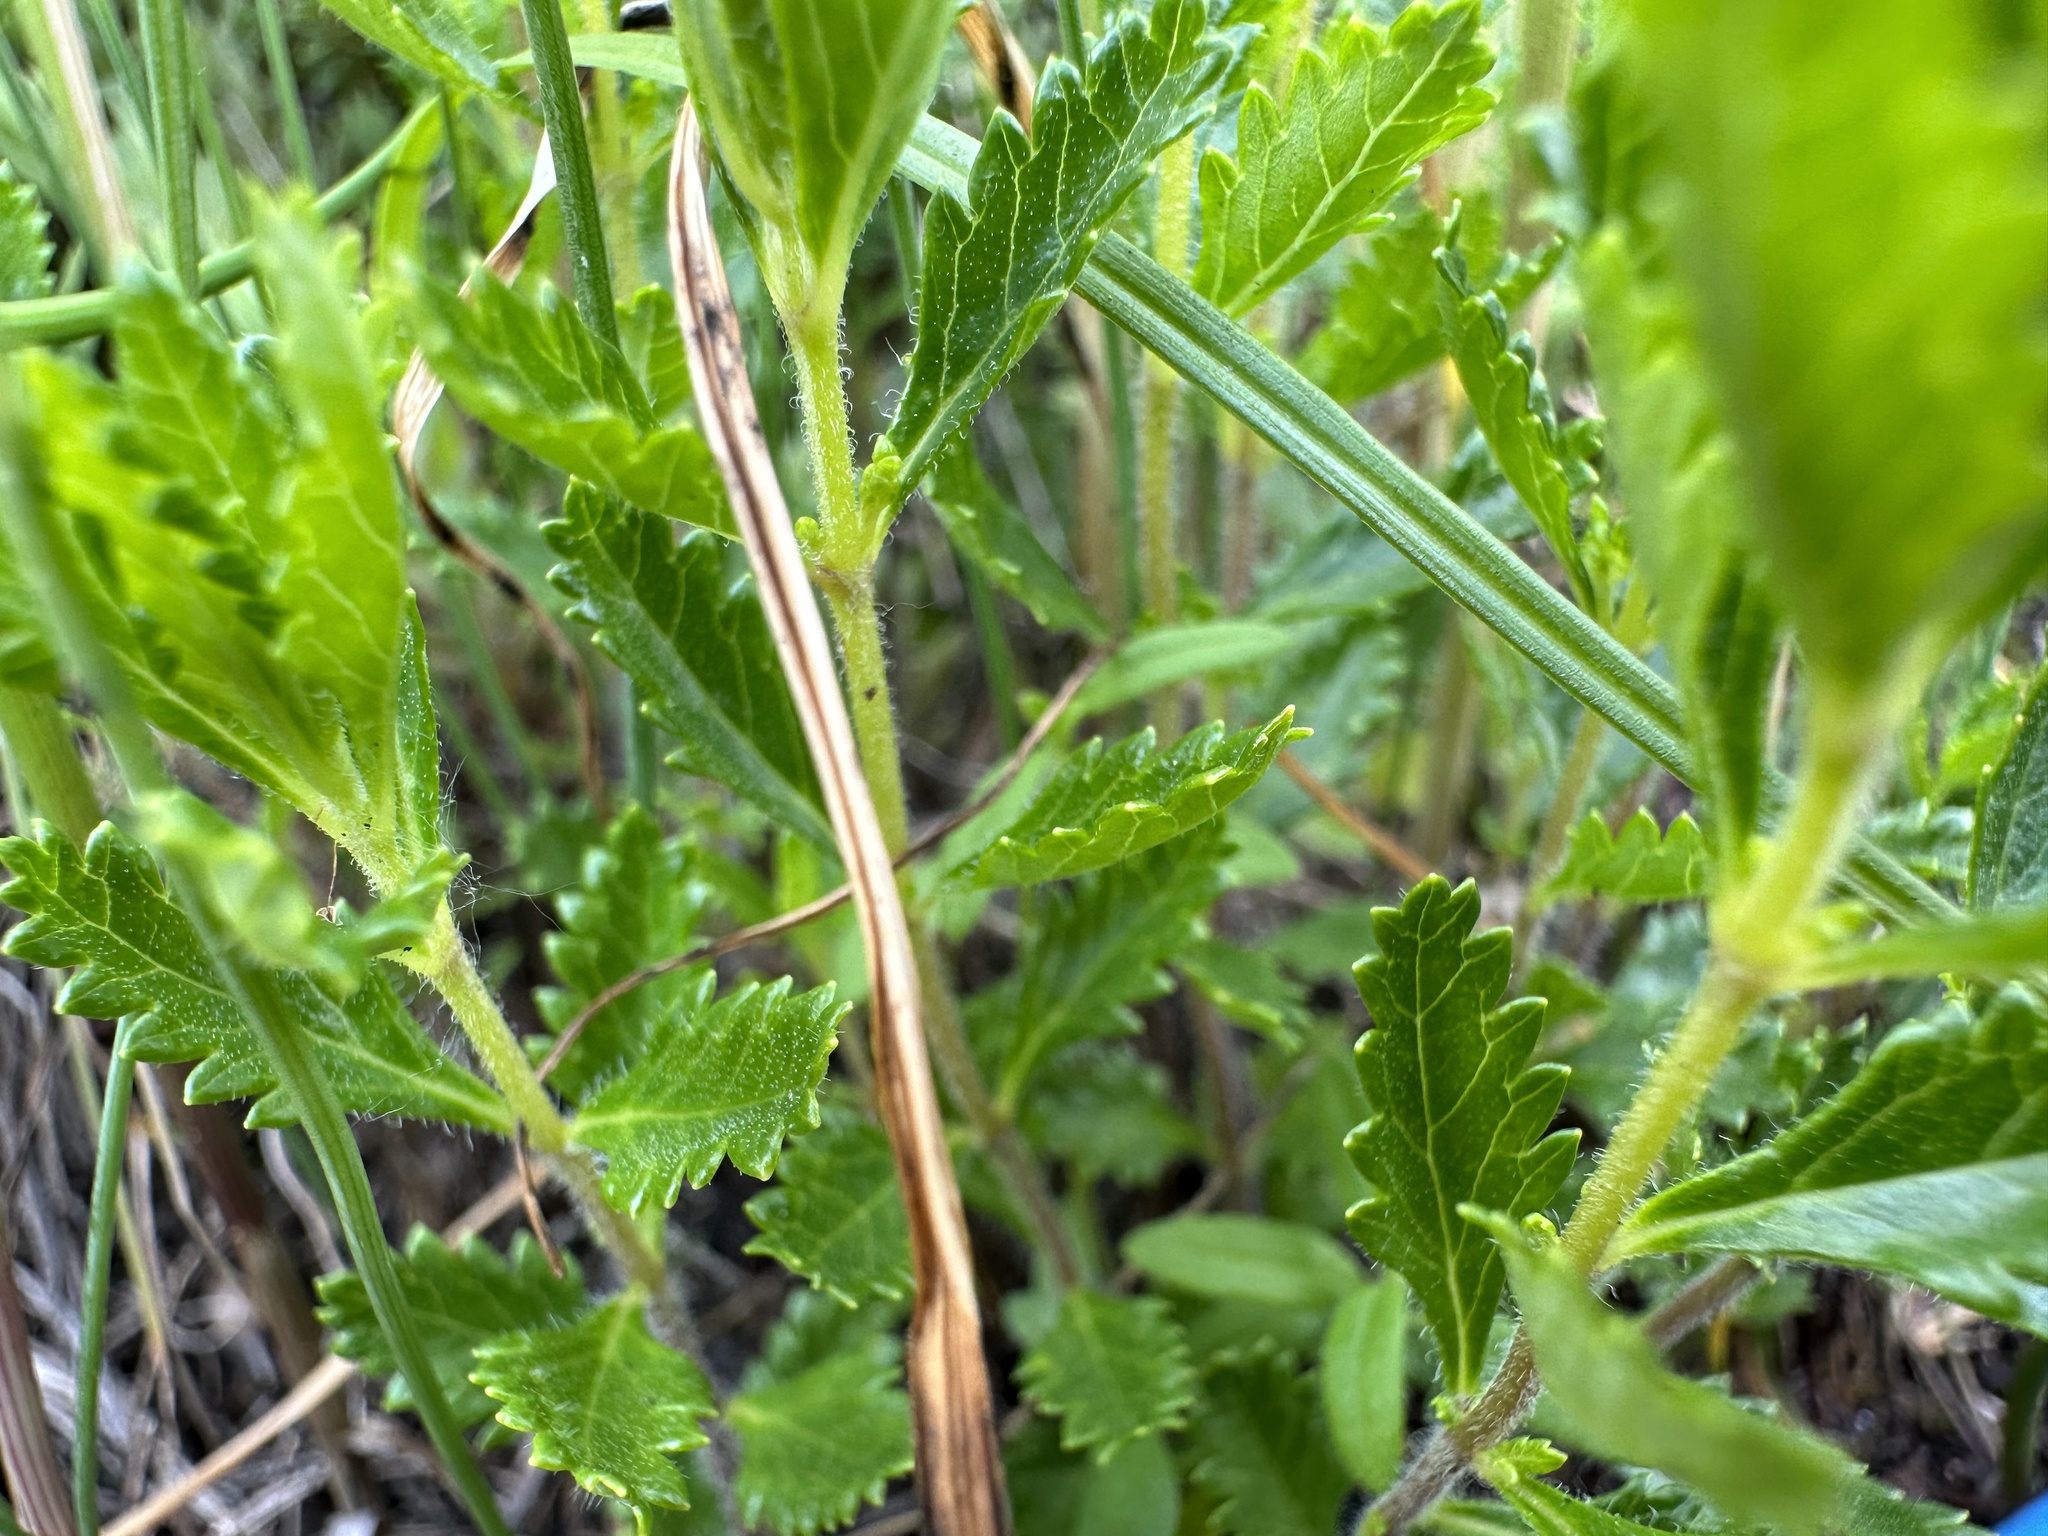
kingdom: Plantae
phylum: Tracheophyta
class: Magnoliopsida
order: Lamiales
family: Lamiaceae
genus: Teucrium
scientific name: Teucrium chamaedrys
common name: Wall germander
